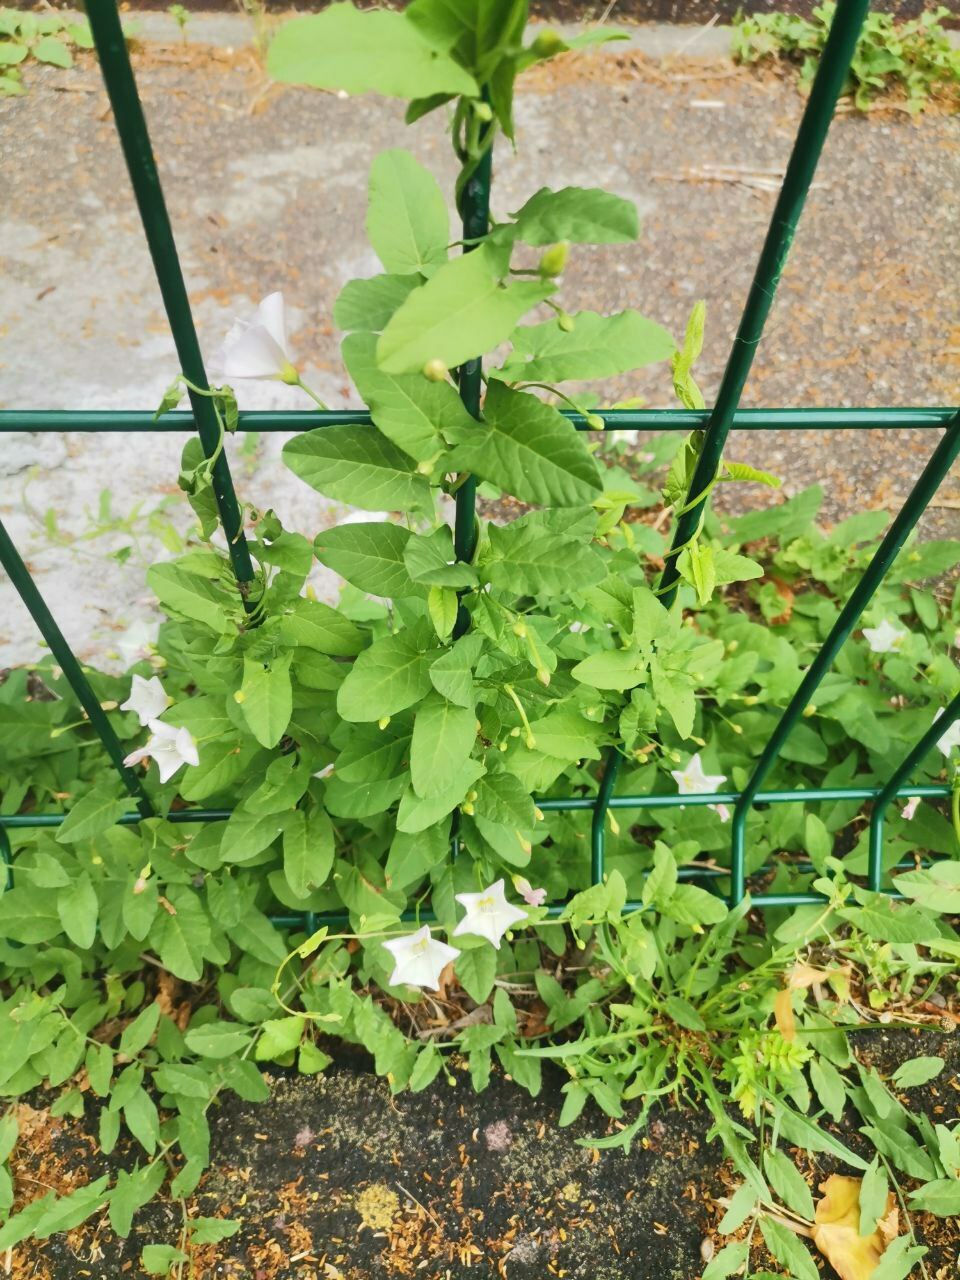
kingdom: Plantae
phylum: Tracheophyta
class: Magnoliopsida
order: Solanales
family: Convolvulaceae
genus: Convolvulus
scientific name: Convolvulus arvensis
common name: Field bindweed
